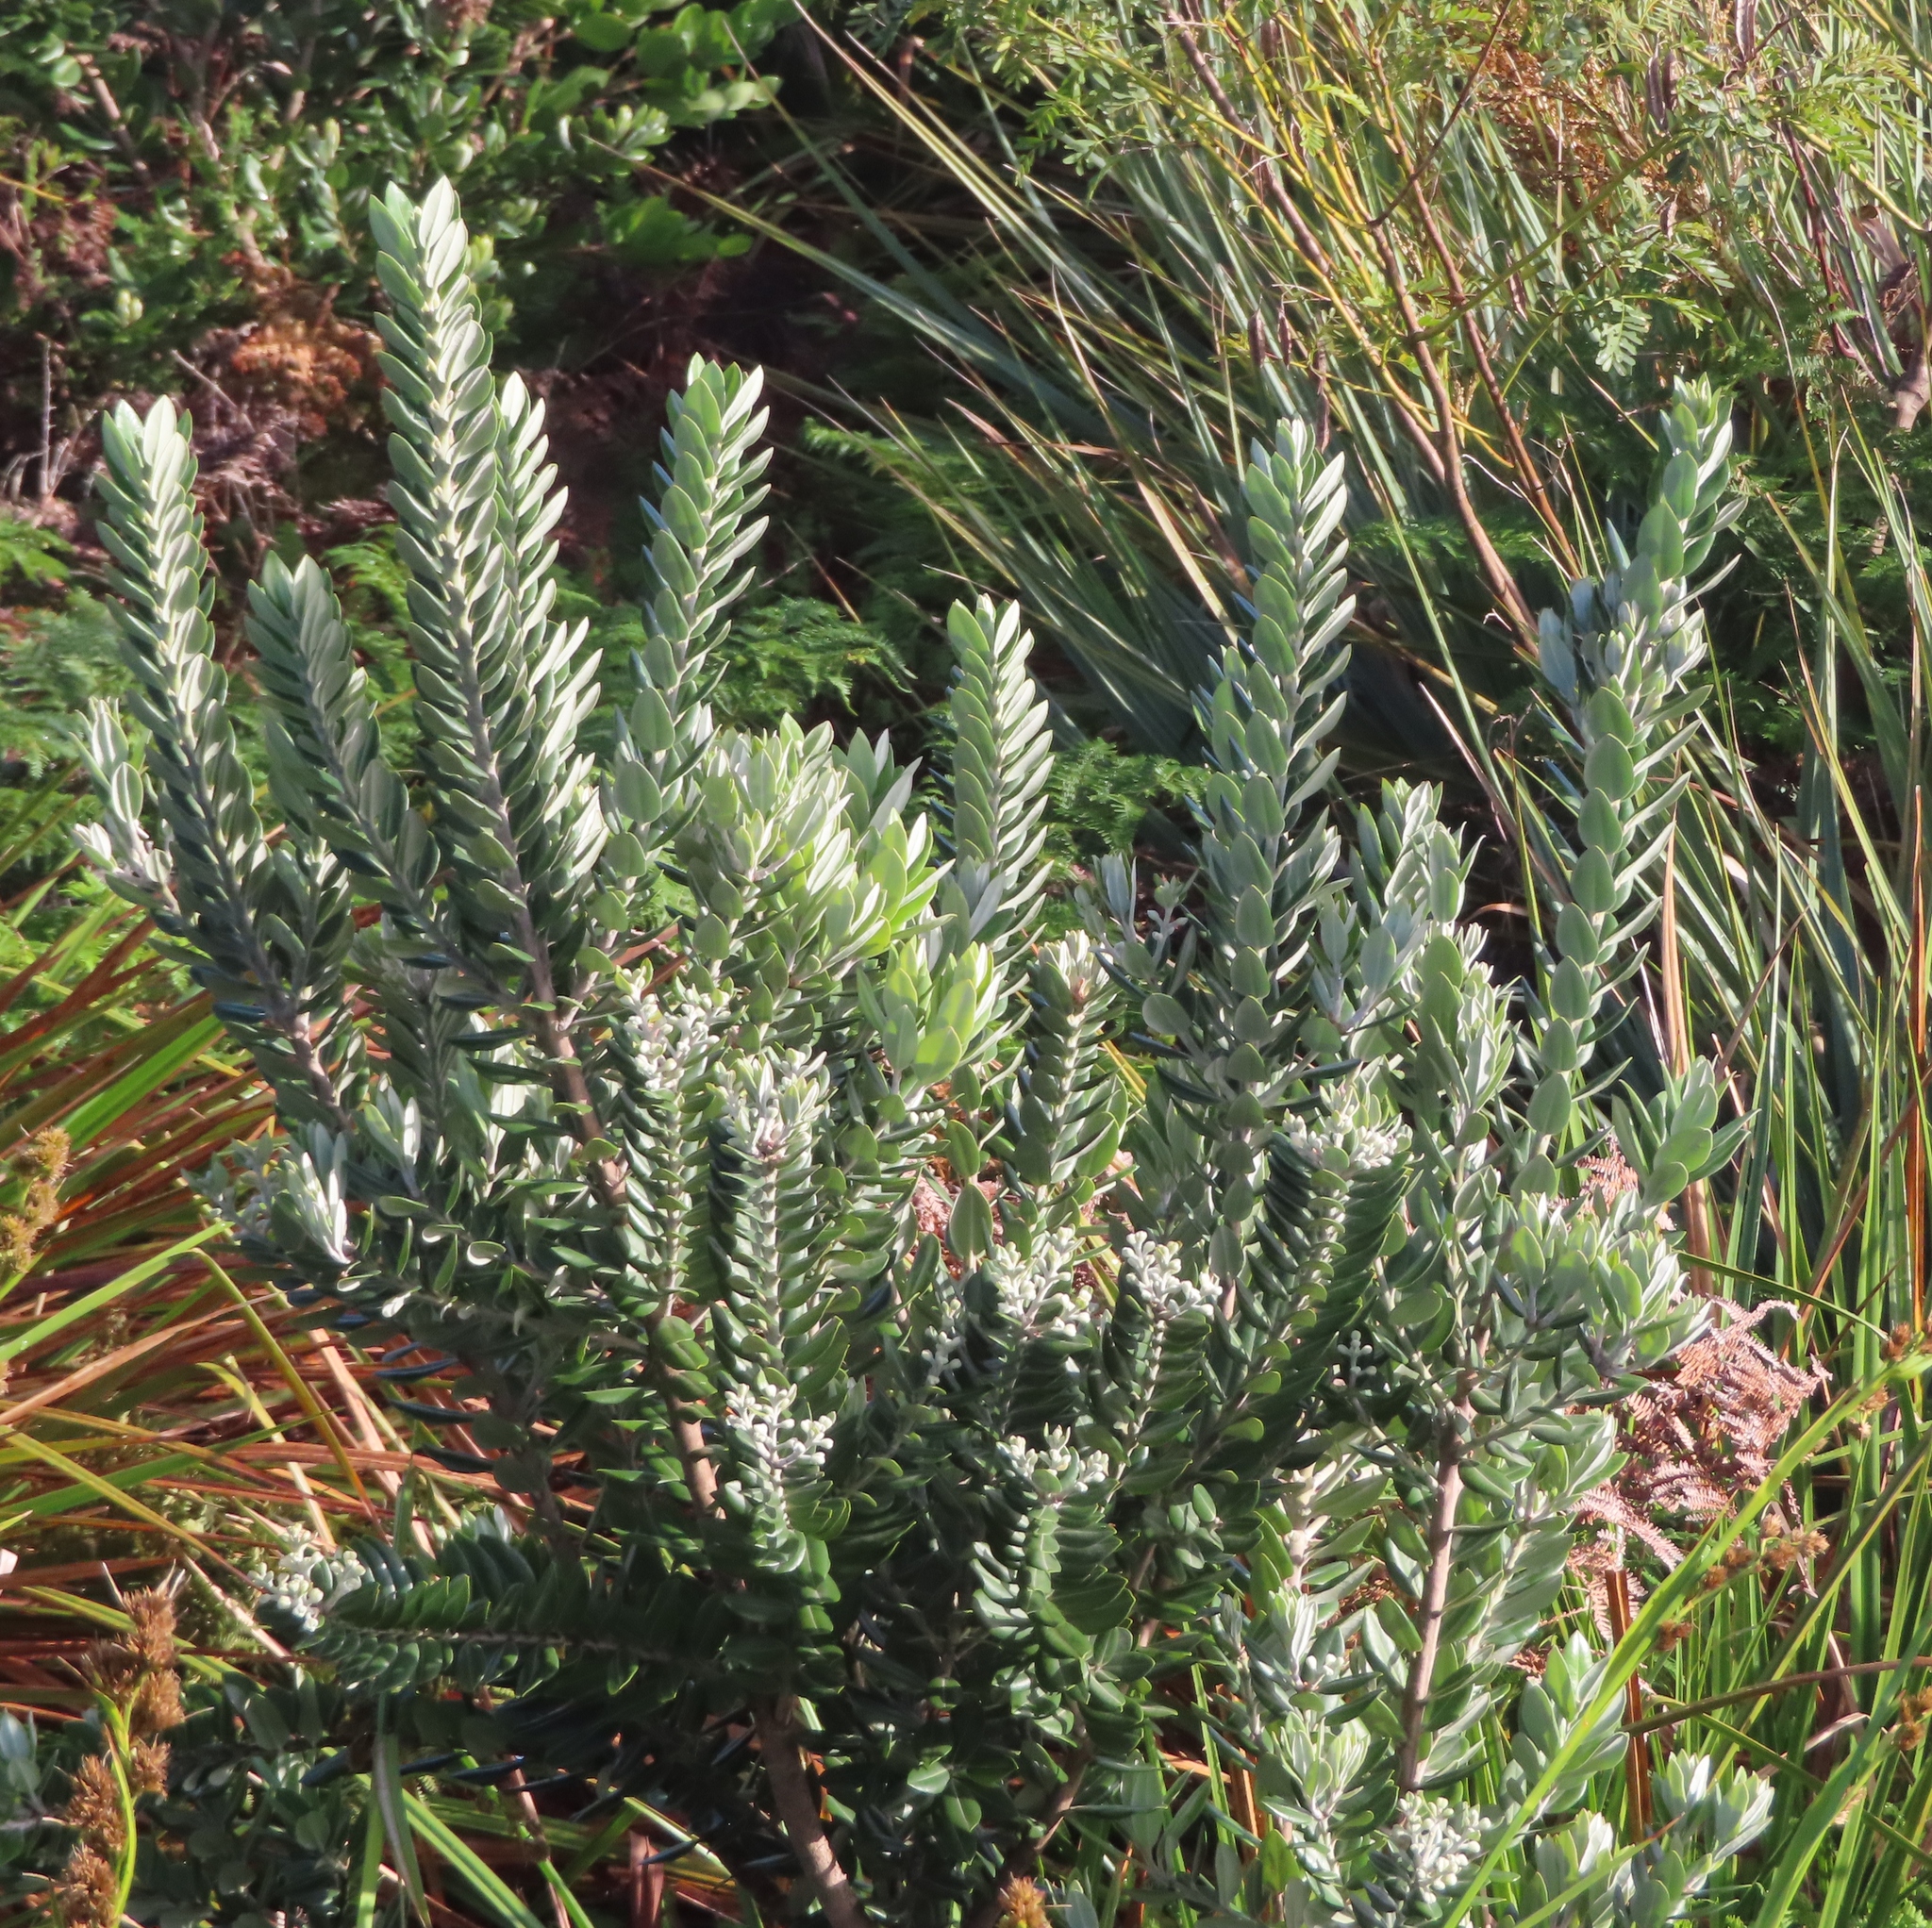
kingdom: Plantae
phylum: Tracheophyta
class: Magnoliopsida
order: Myrtales
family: Myrtaceae
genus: Metrosideros
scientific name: Metrosideros excelsa
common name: New zealand christmastree
